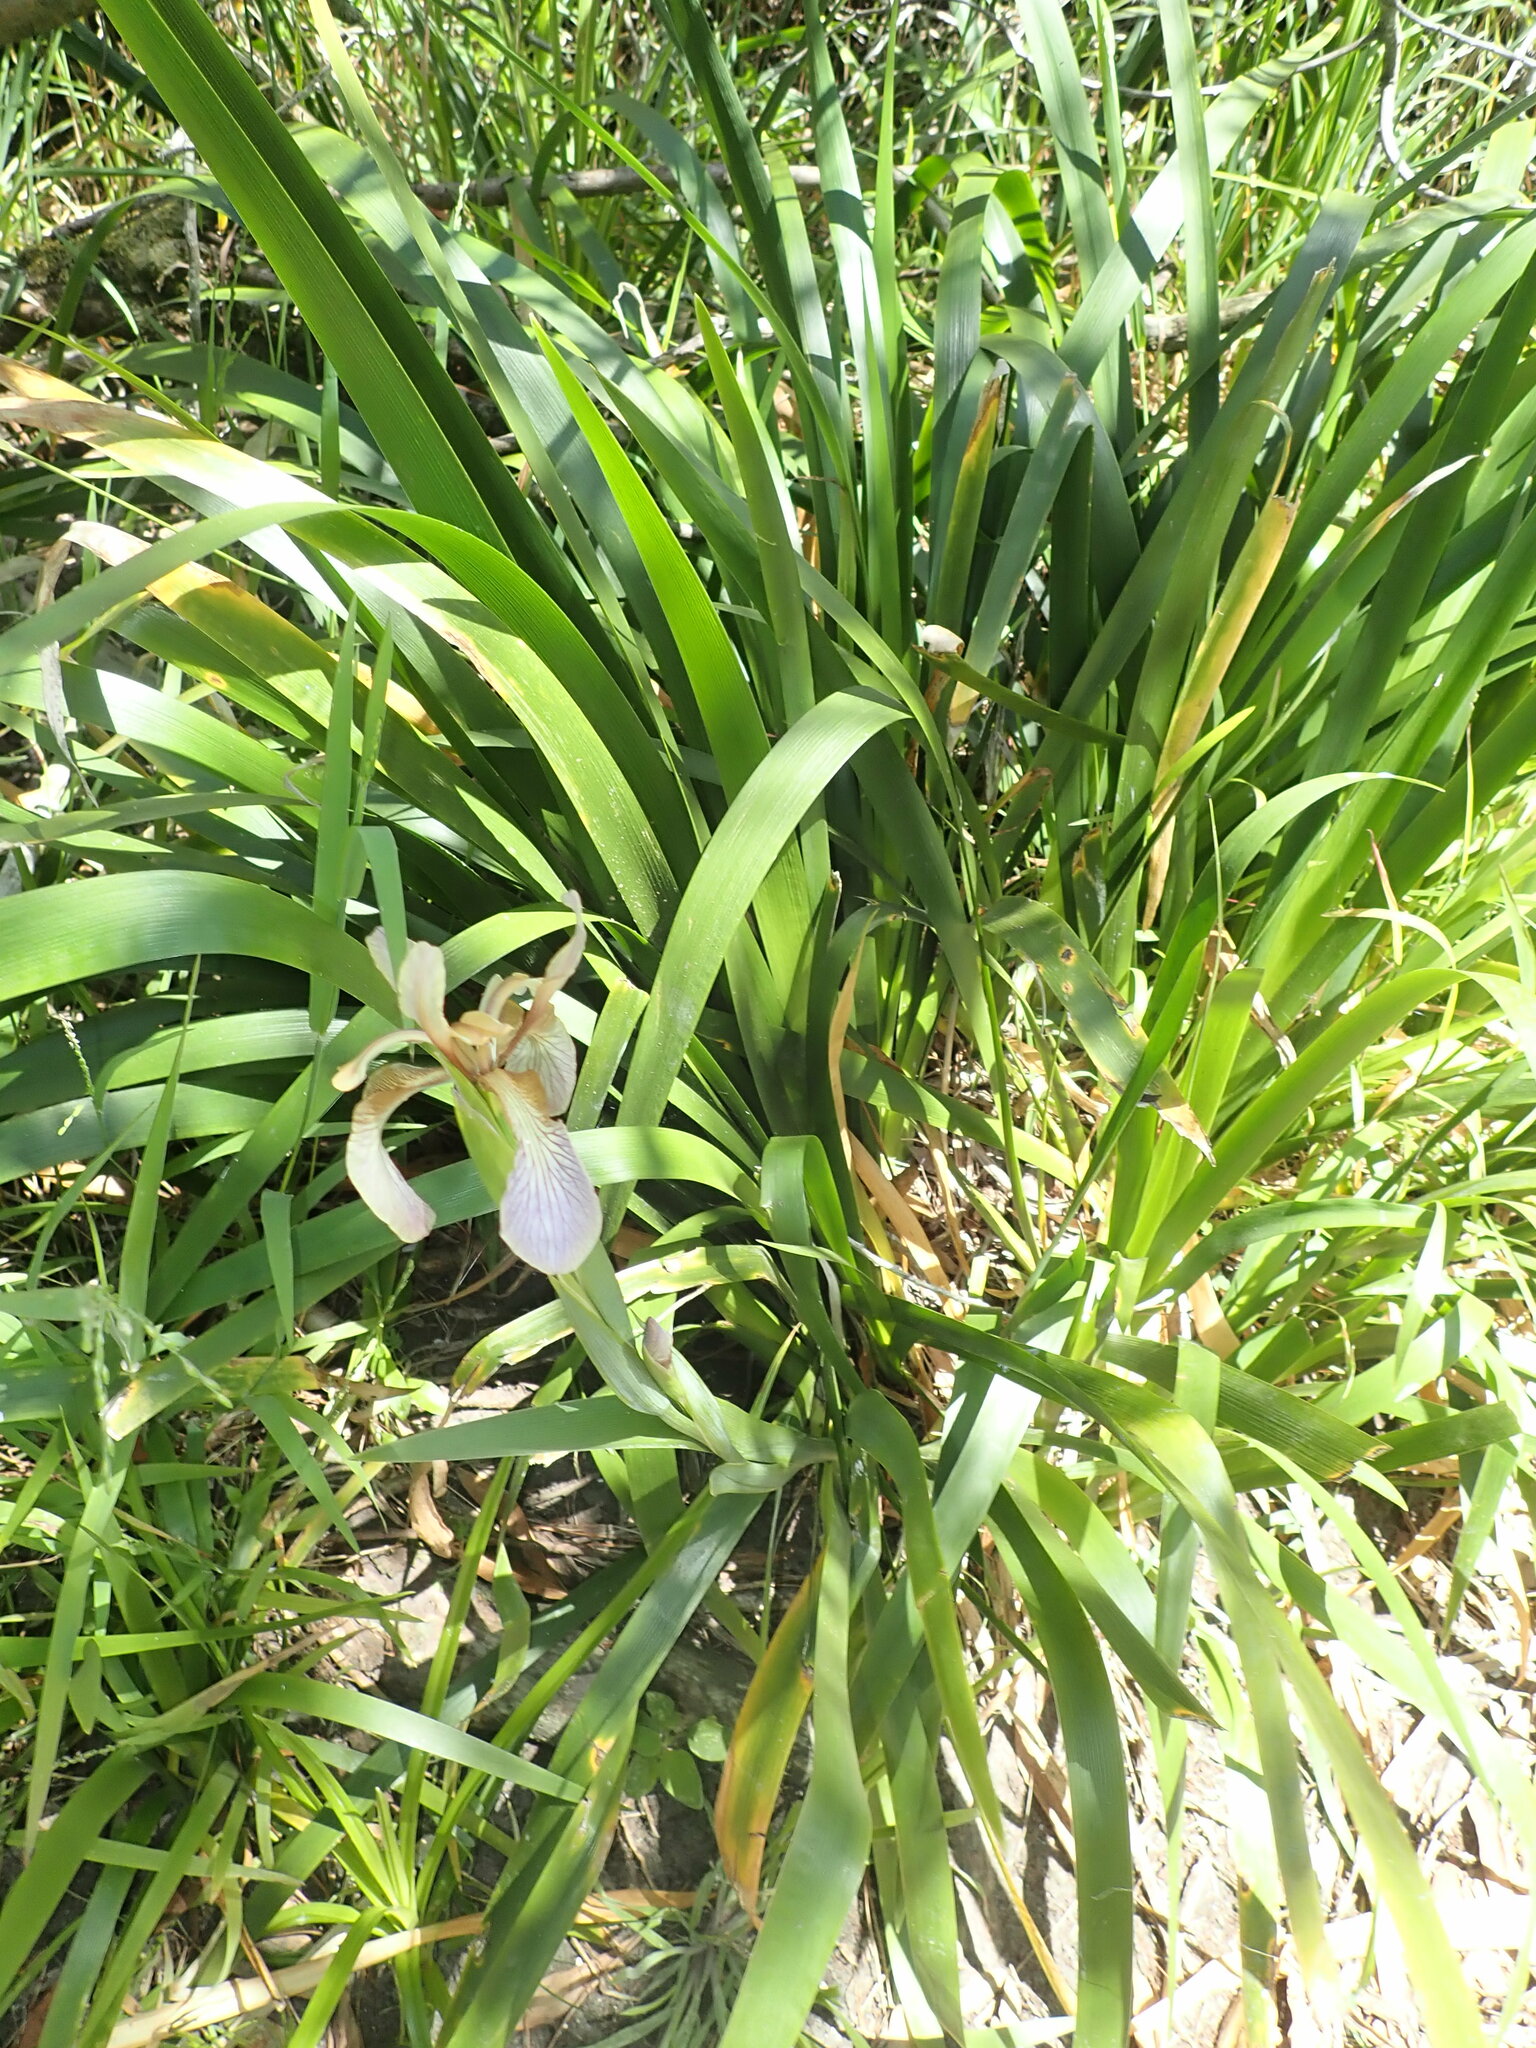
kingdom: Plantae
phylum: Tracheophyta
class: Liliopsida
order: Asparagales
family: Iridaceae
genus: Iris
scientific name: Iris foetidissima
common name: Stinking iris
